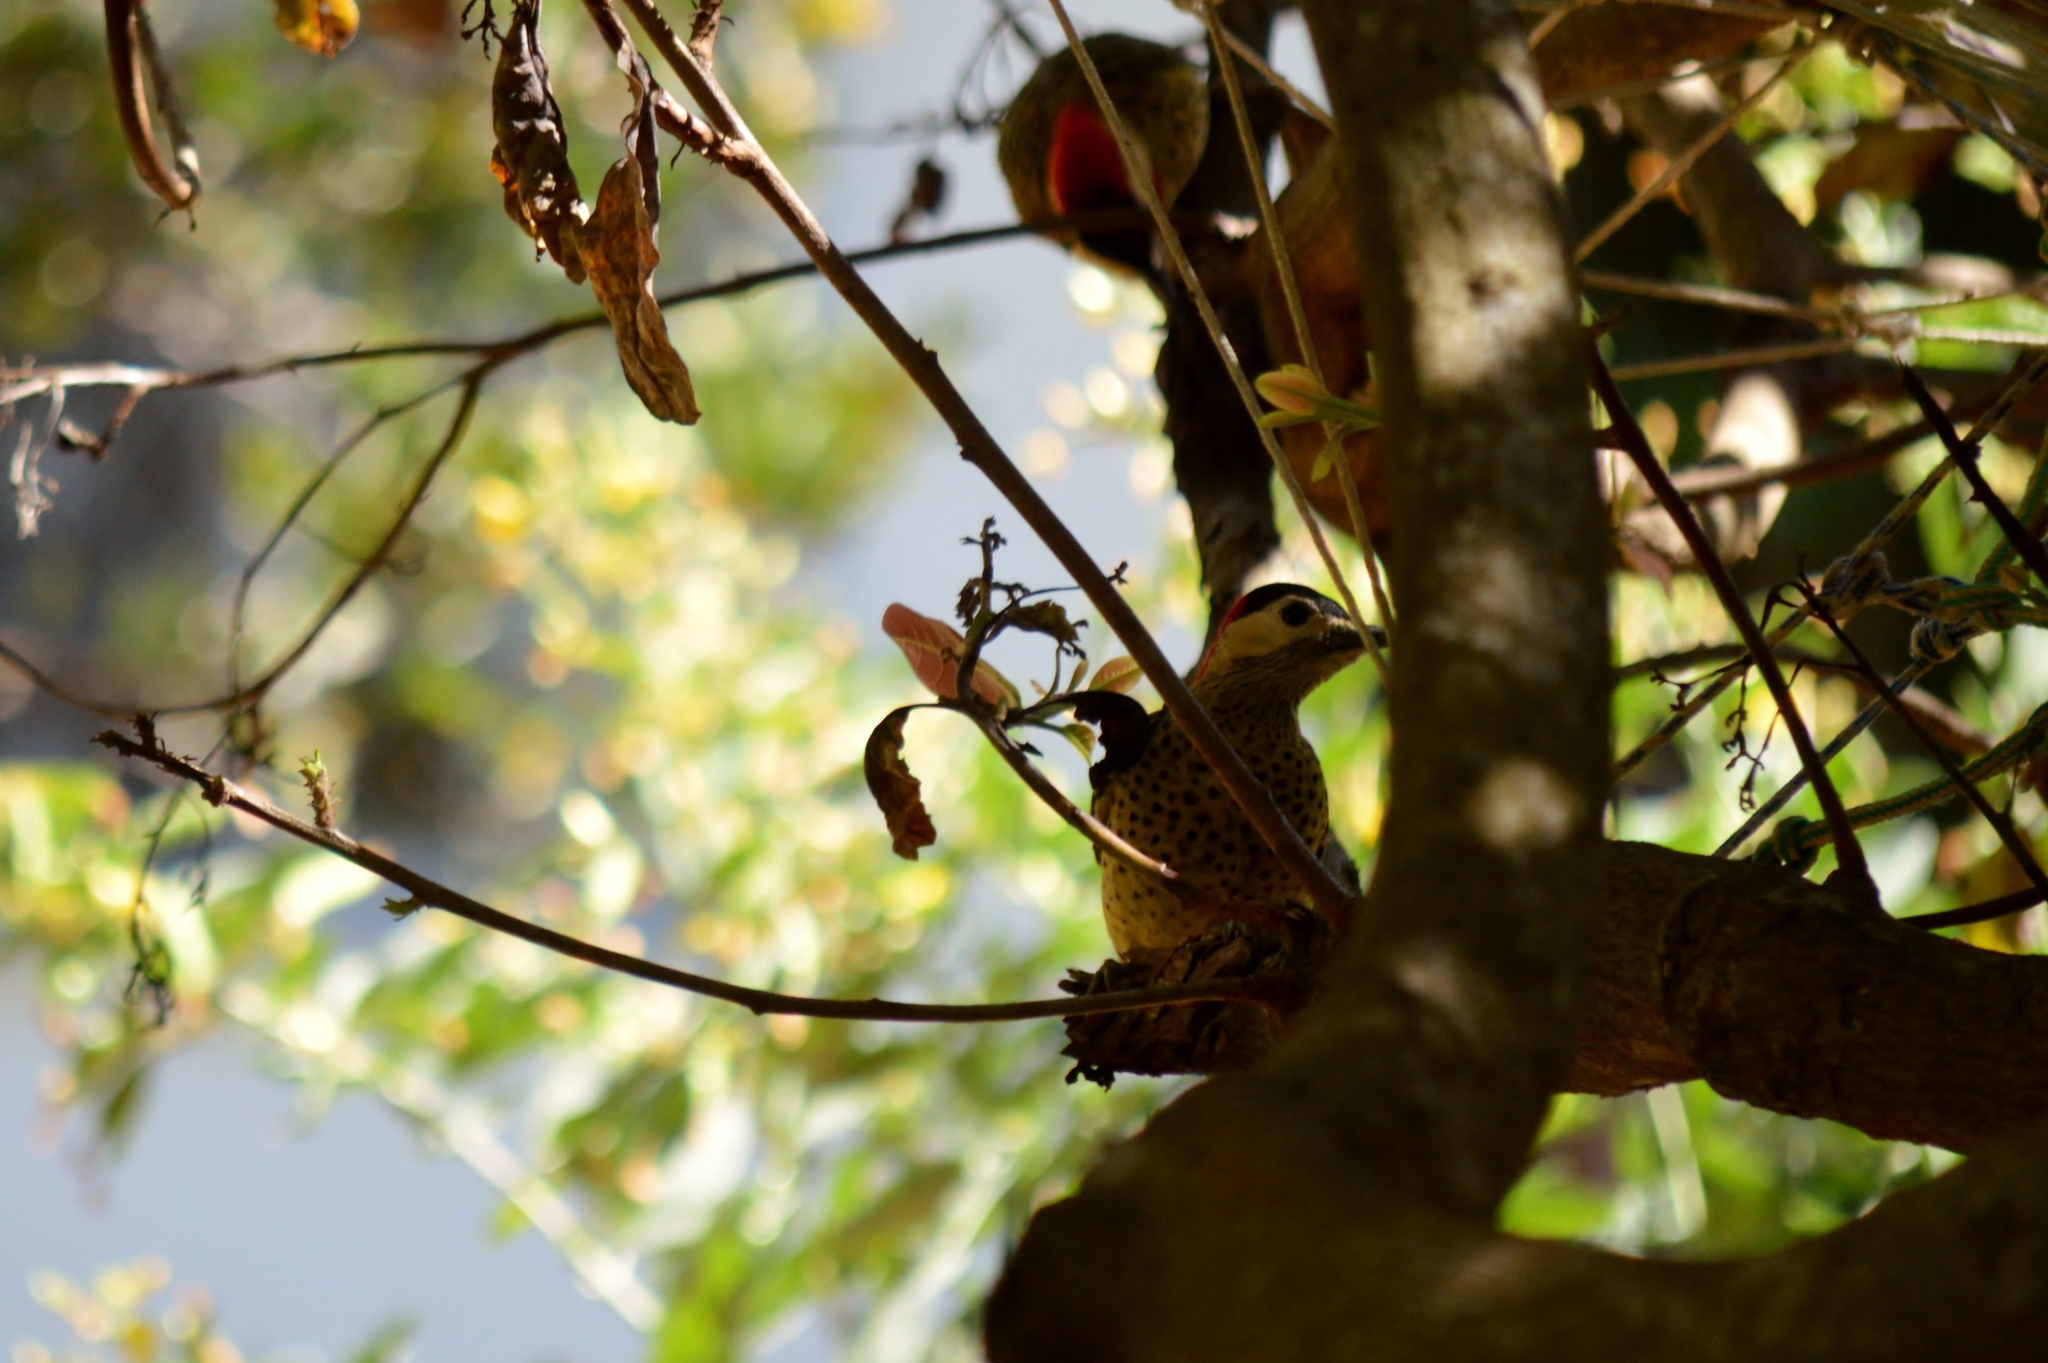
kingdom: Animalia
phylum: Chordata
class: Aves
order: Piciformes
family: Picidae
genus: Colaptes
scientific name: Colaptes melanochloros
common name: Green-barred woodpecker
